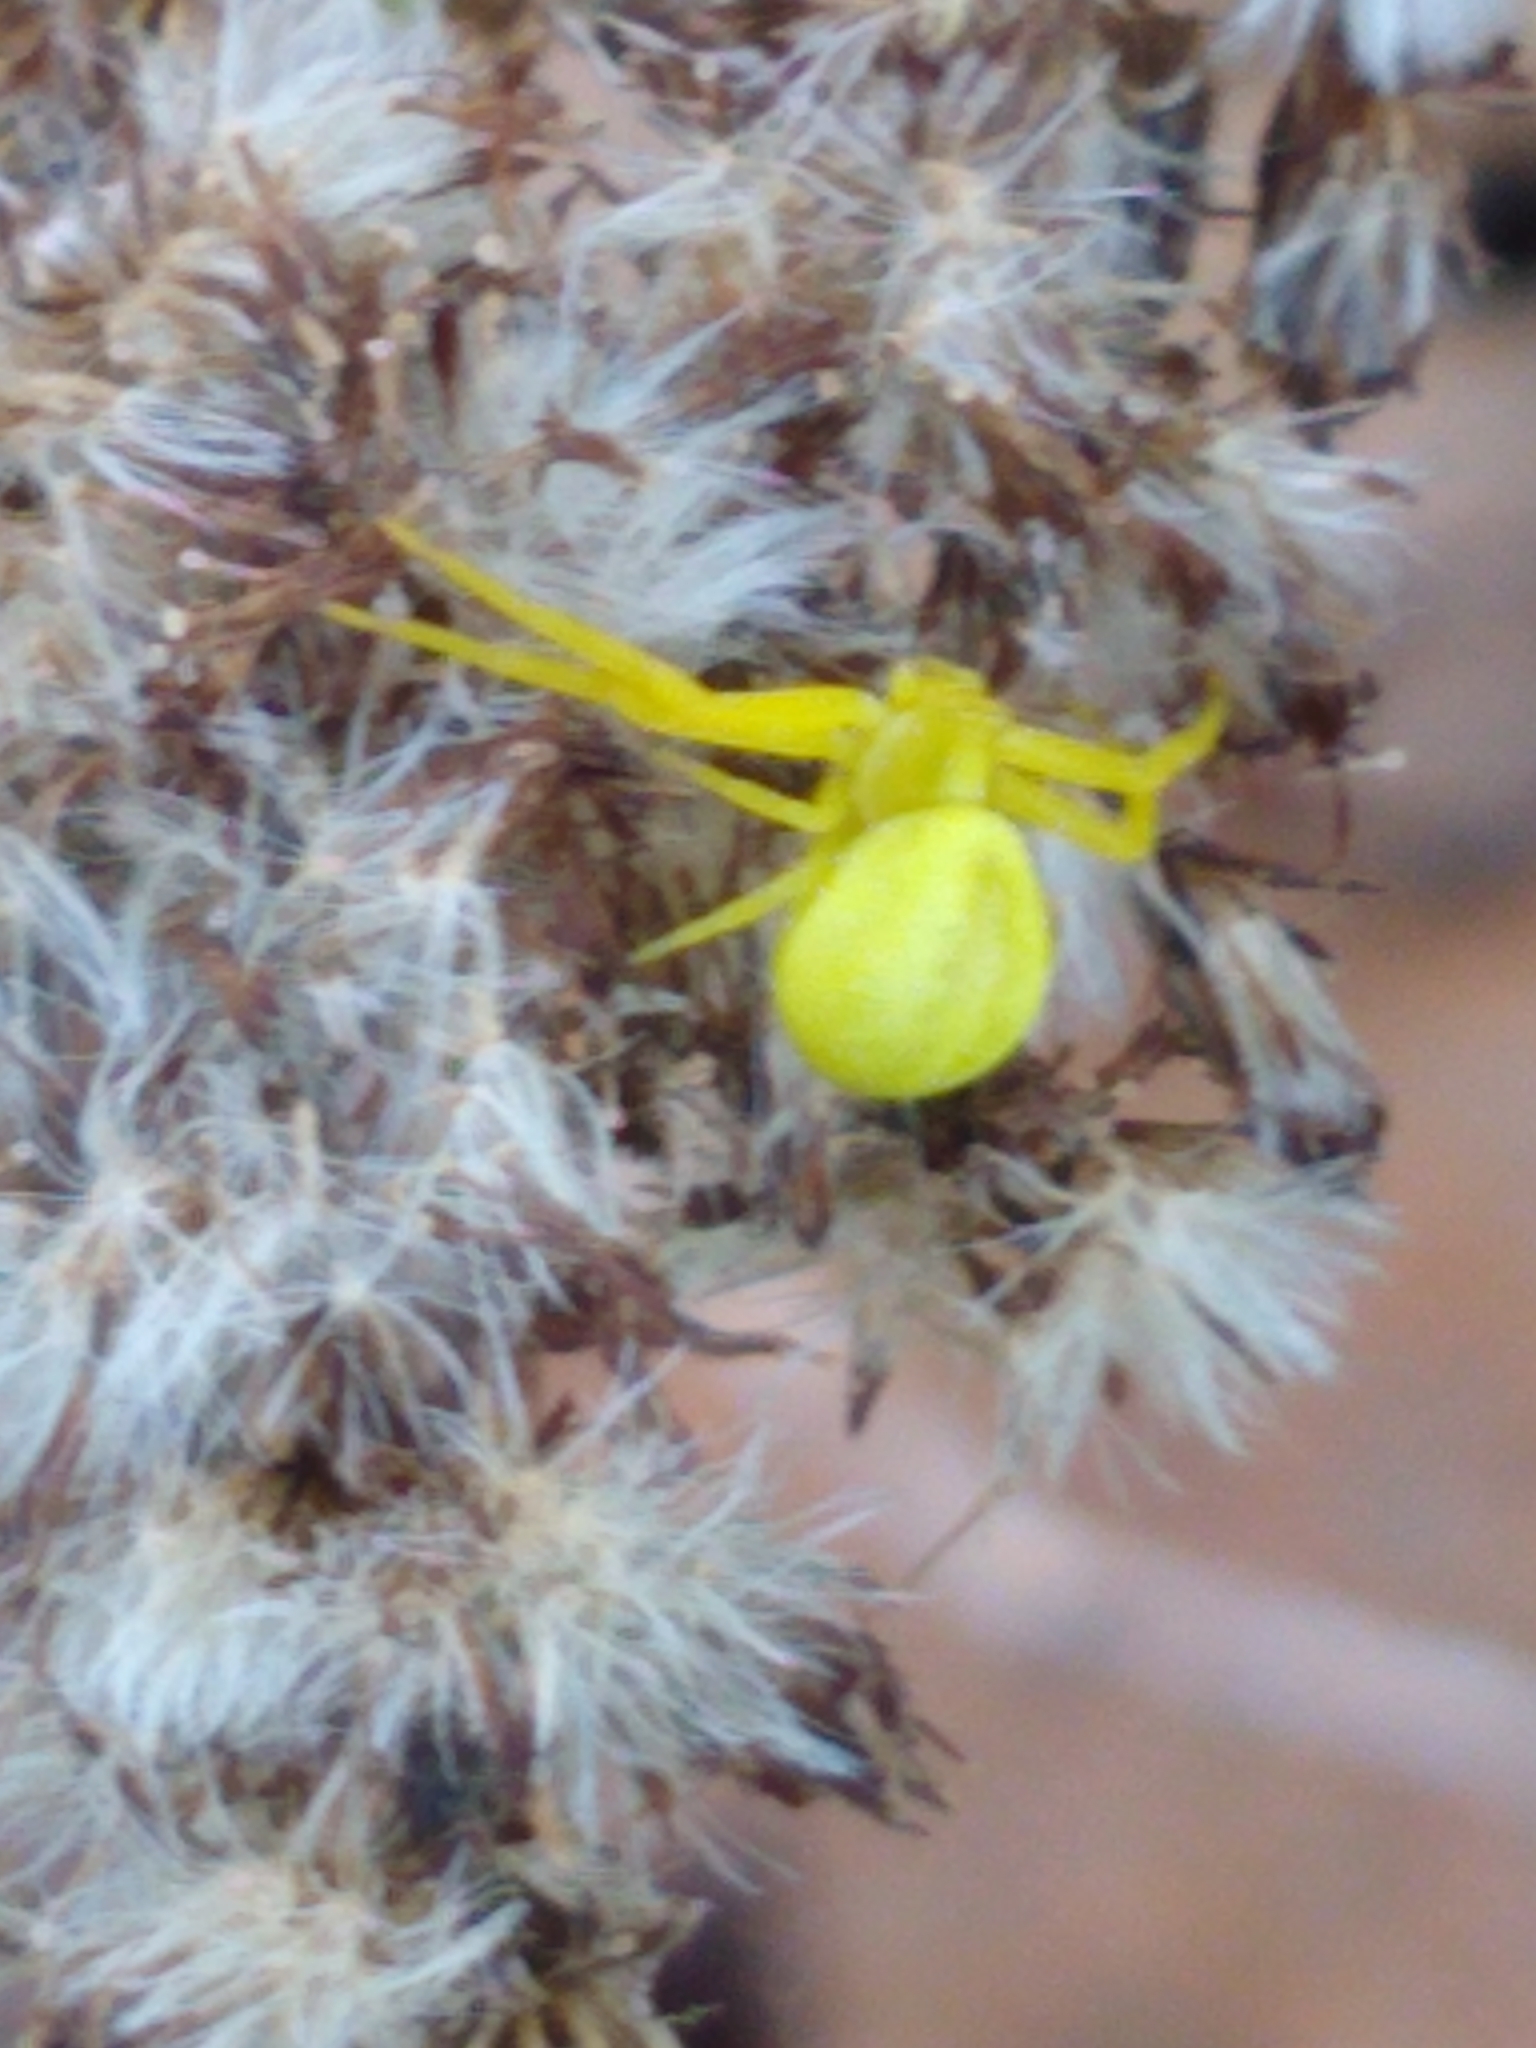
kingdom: Animalia
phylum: Arthropoda
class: Arachnida
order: Araneae
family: Thomisidae
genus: Misumena
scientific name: Misumena vatia
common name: Goldenrod crab spider
